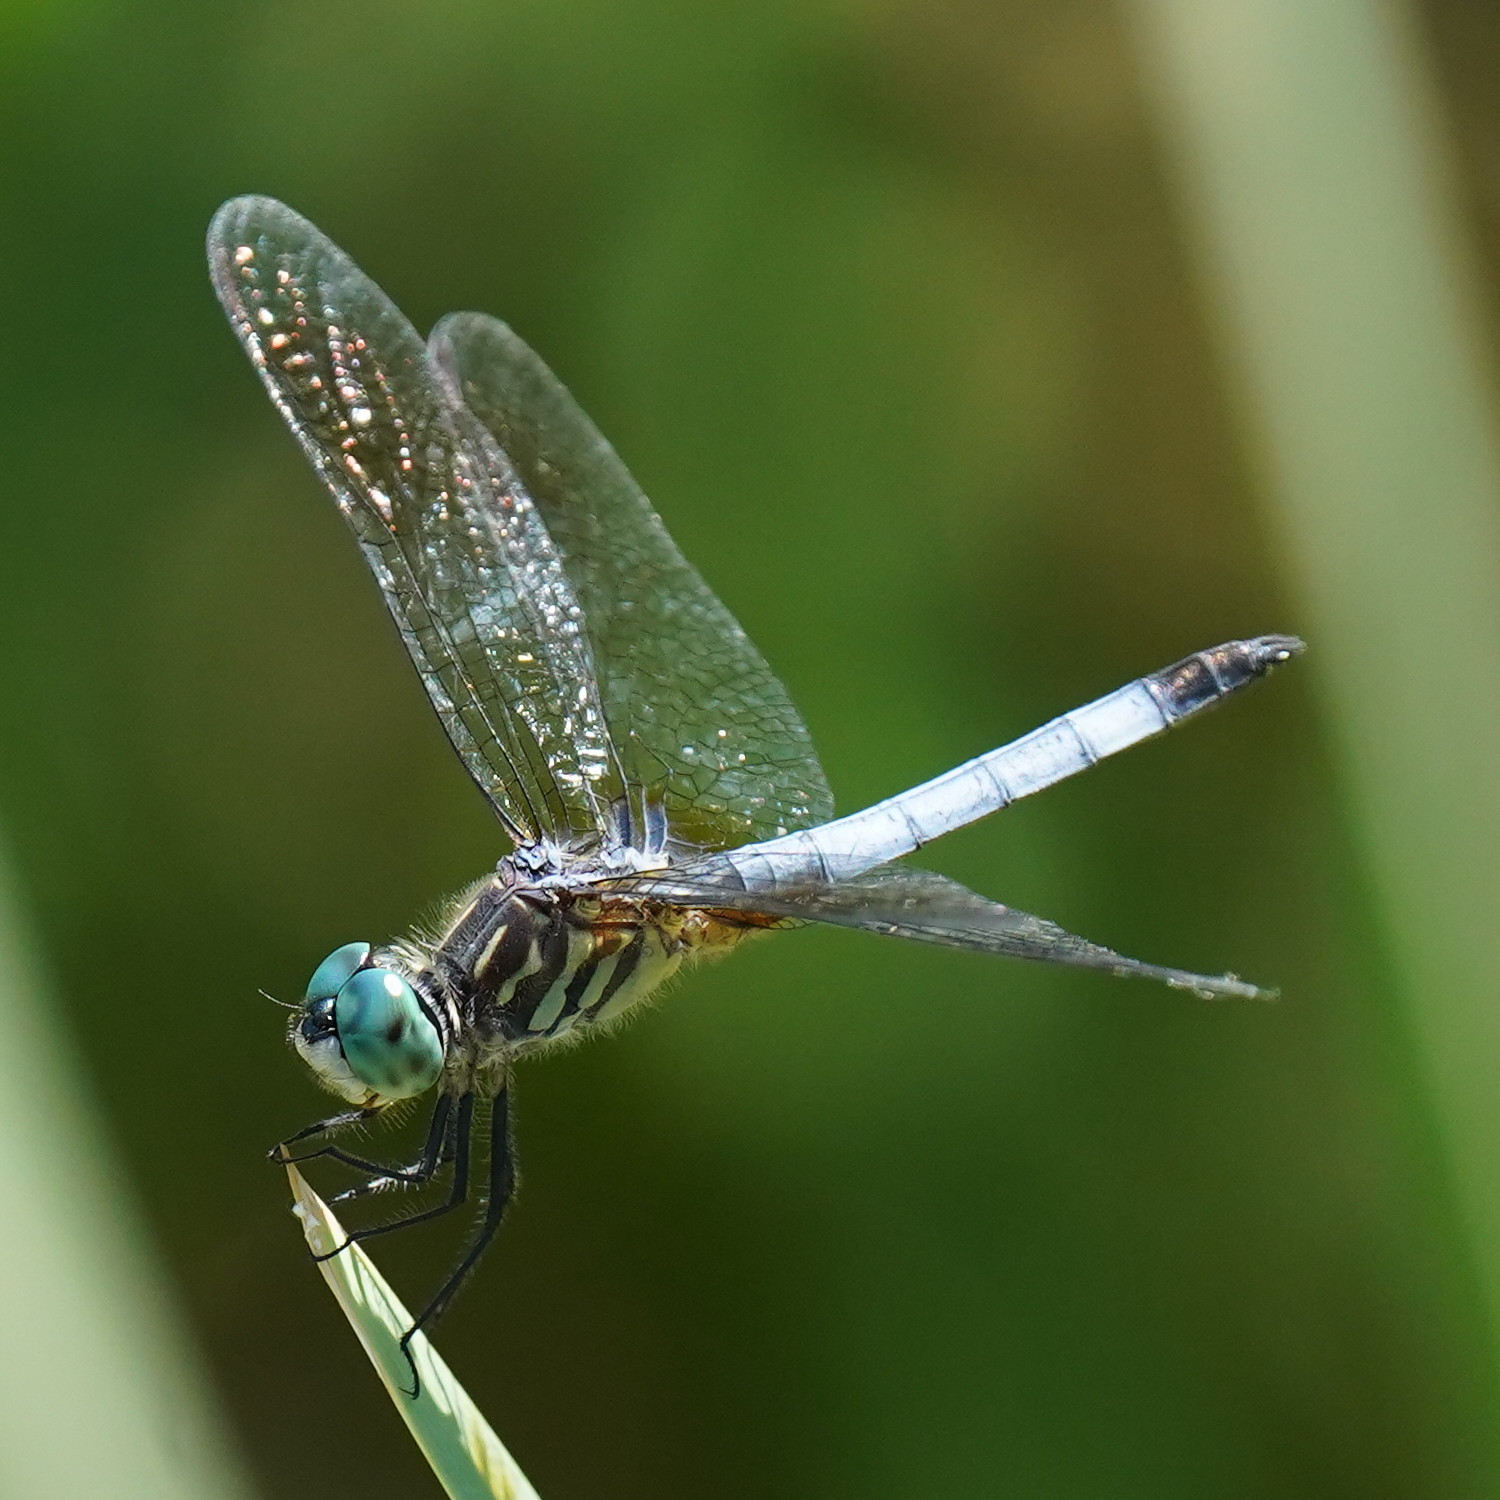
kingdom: Animalia
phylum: Arthropoda
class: Insecta
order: Odonata
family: Libellulidae
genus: Pachydiplax
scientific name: Pachydiplax longipennis
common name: Blue dasher
